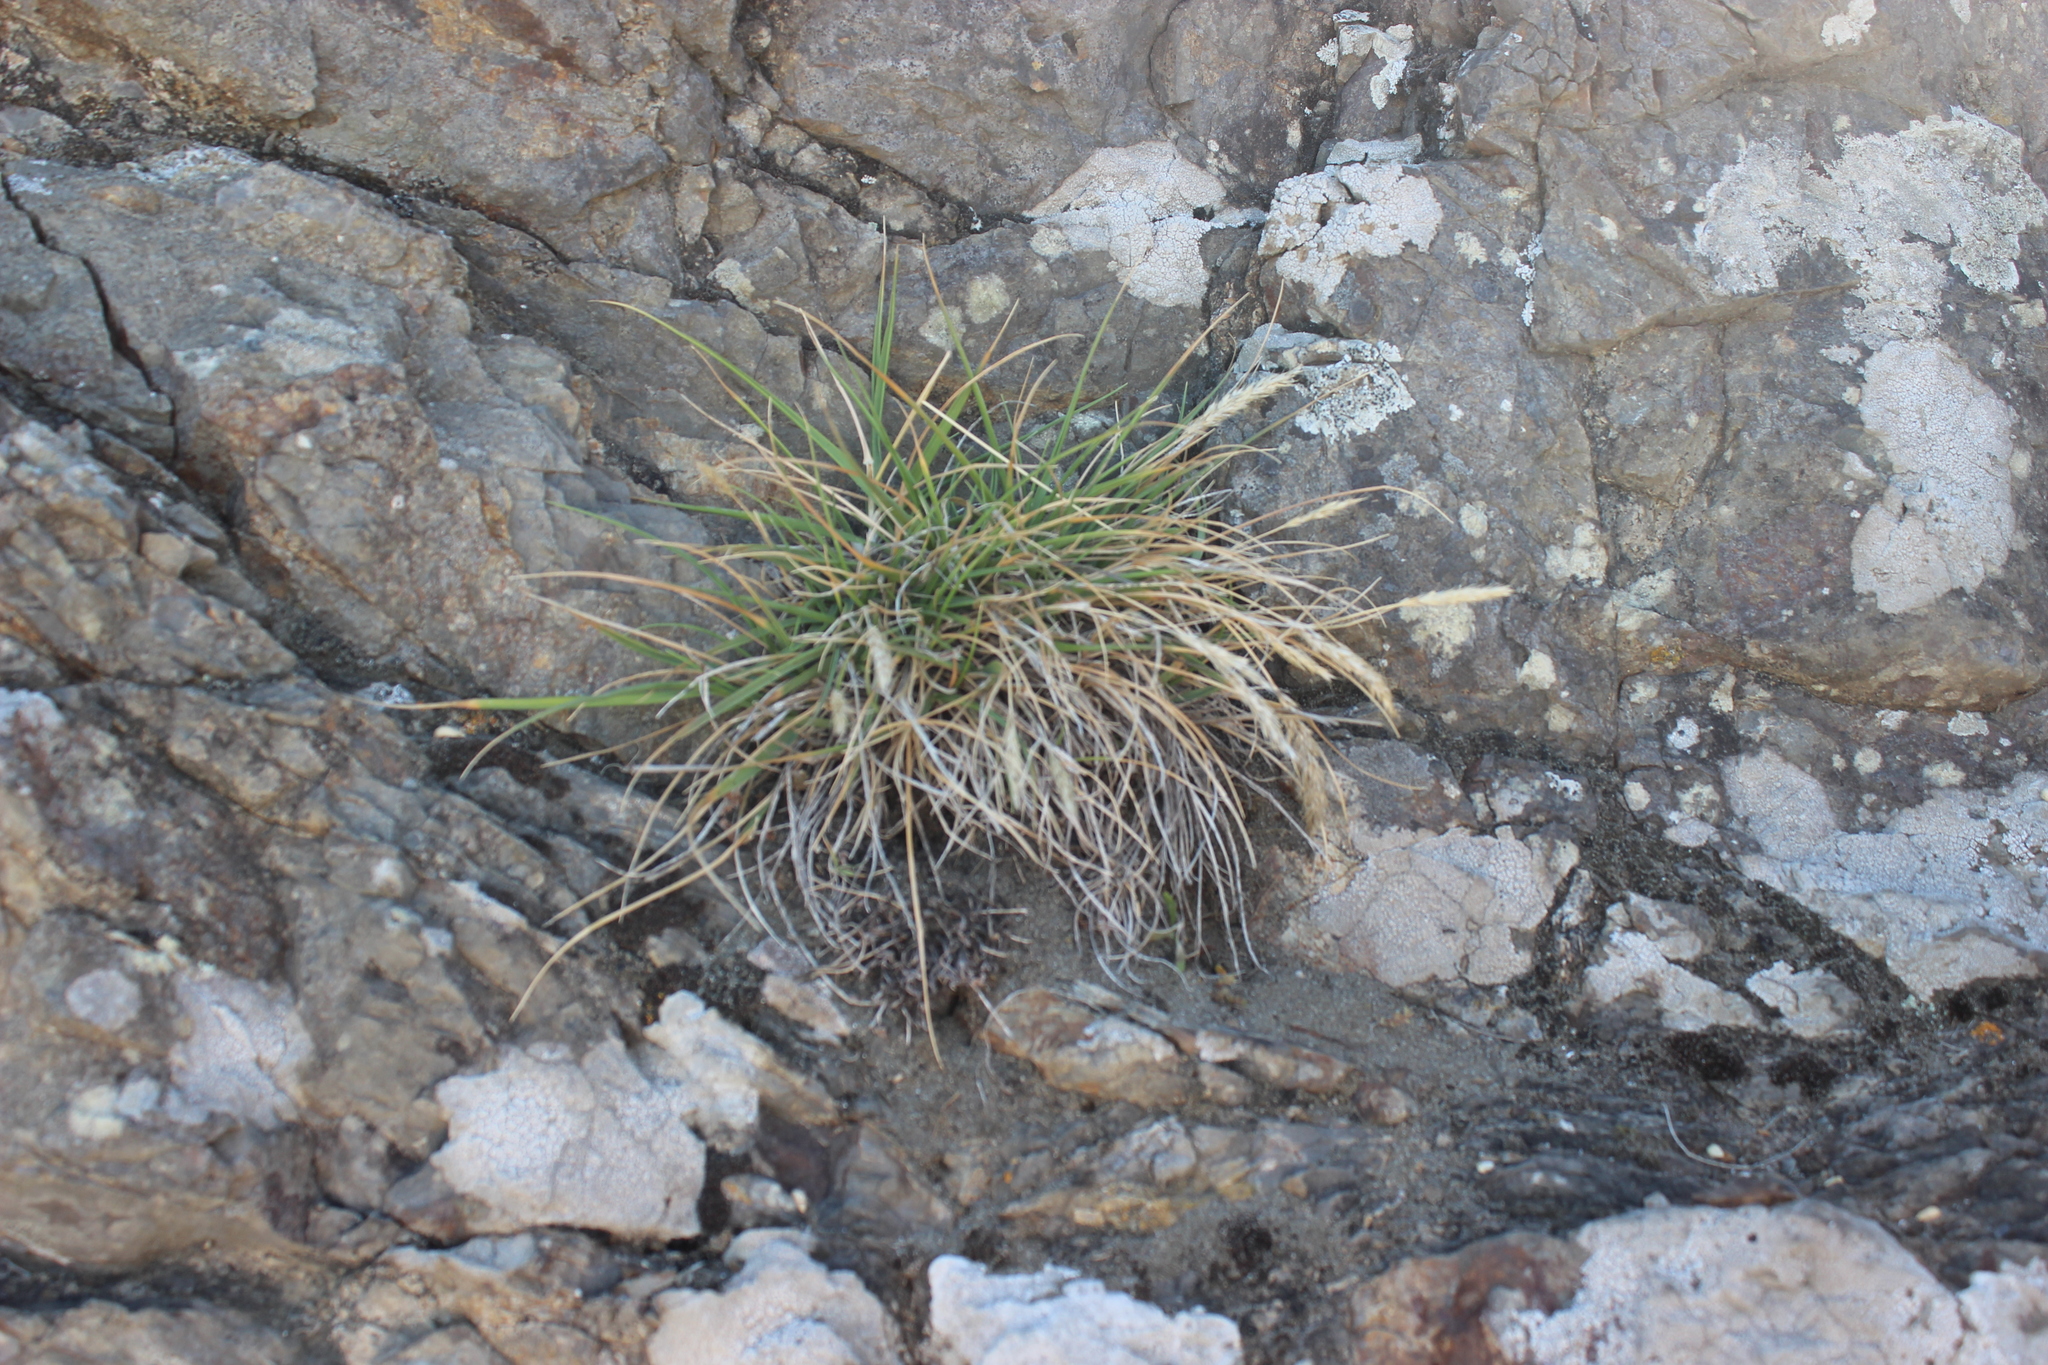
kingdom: Plantae
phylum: Tracheophyta
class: Liliopsida
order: Poales
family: Poaceae
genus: Koeleria
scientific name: Koeleria arduana
